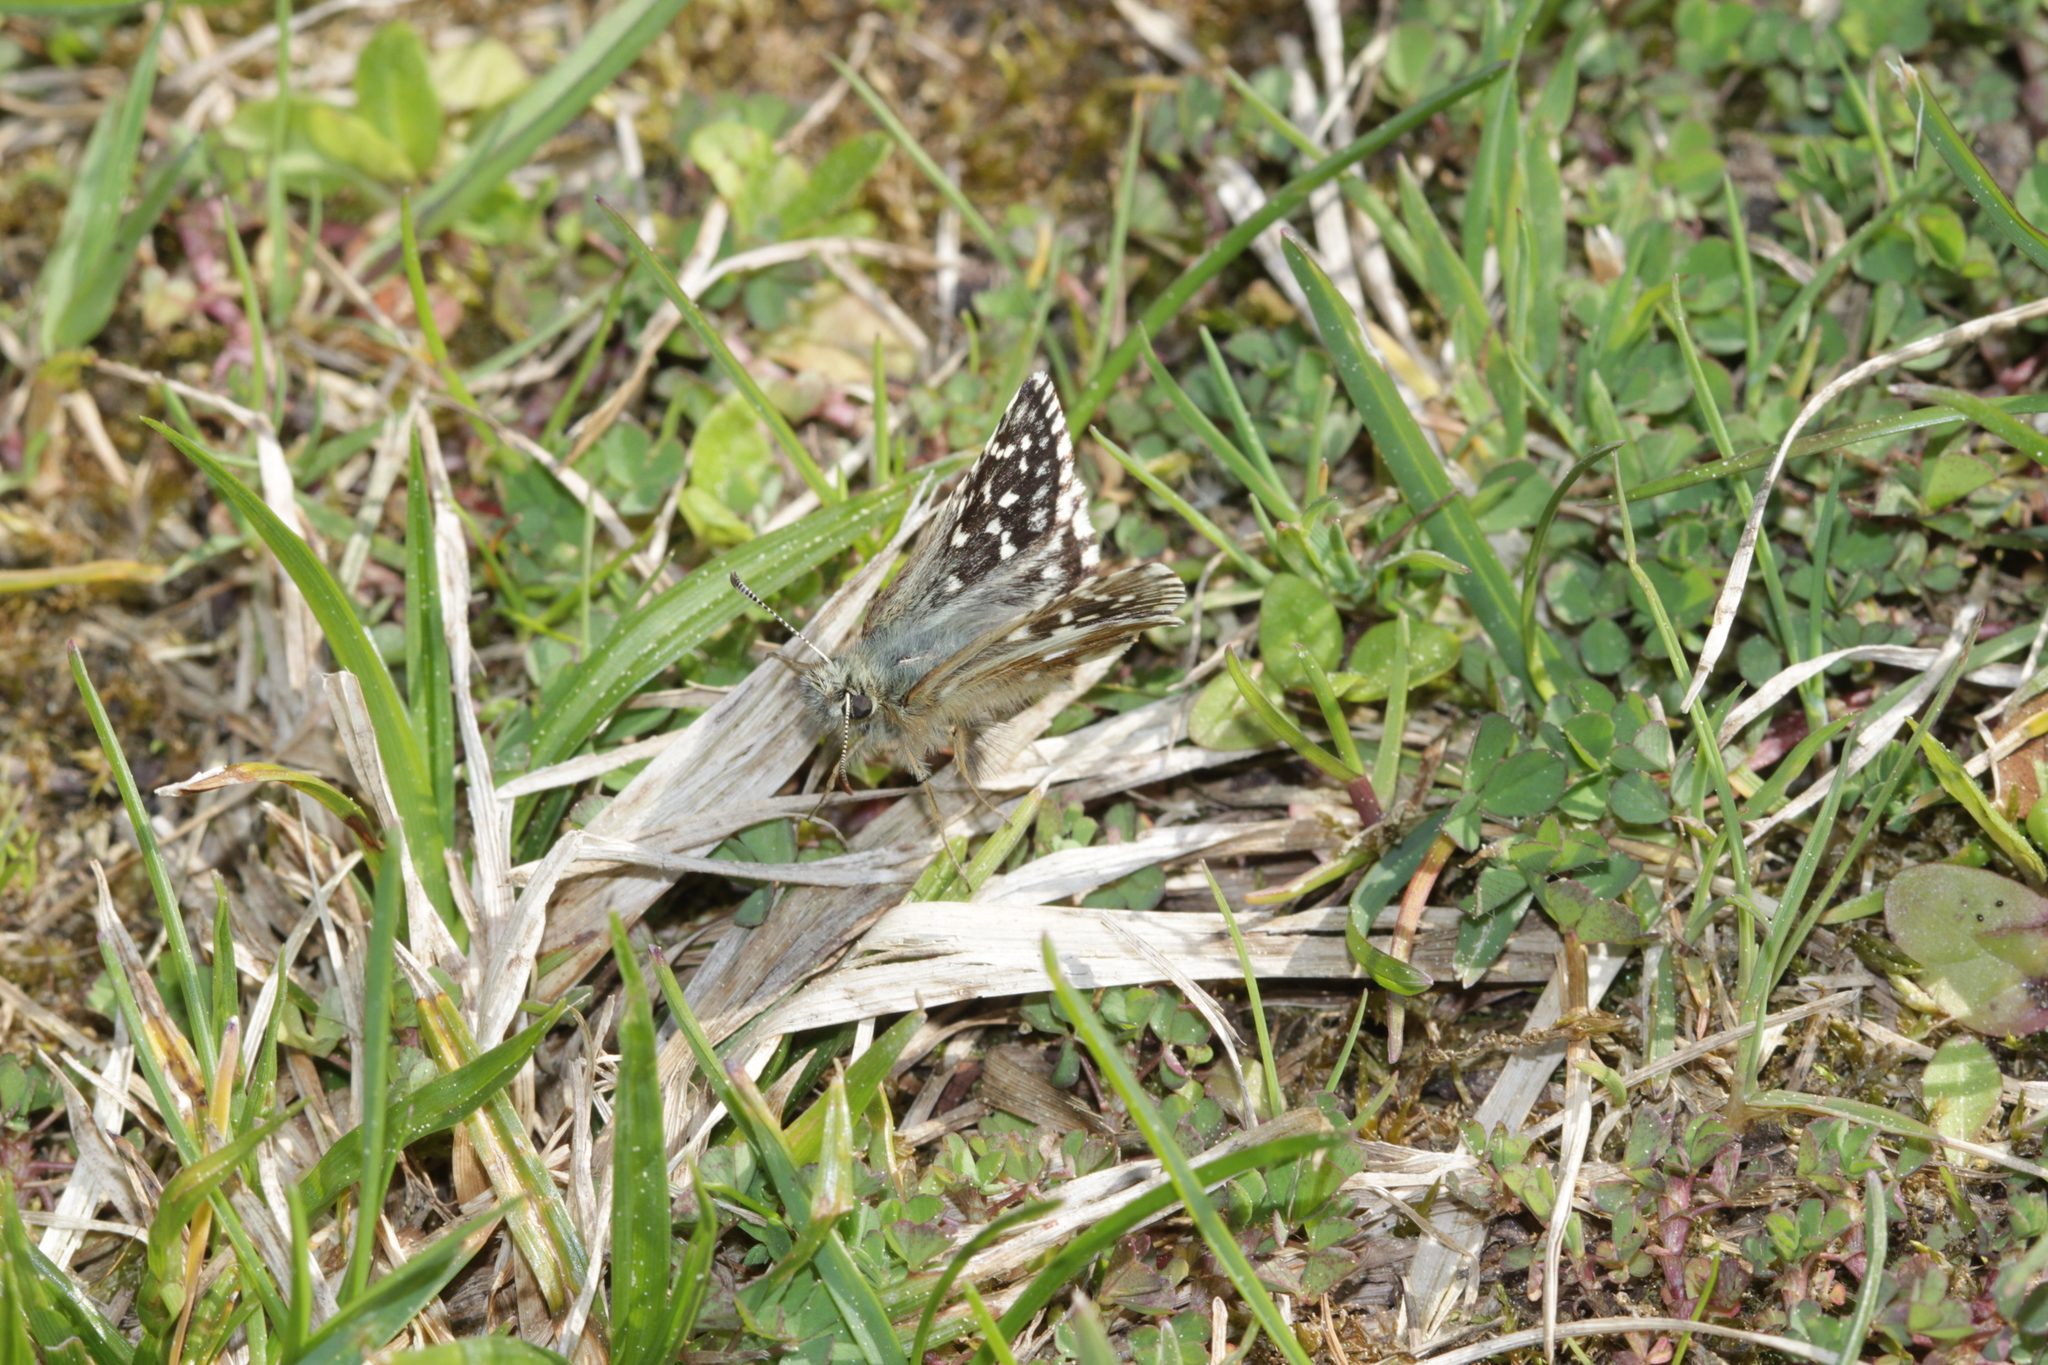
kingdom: Animalia
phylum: Arthropoda
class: Insecta
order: Lepidoptera
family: Hesperiidae
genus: Pyrgus
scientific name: Pyrgus malvae
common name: Grizzled skipper
